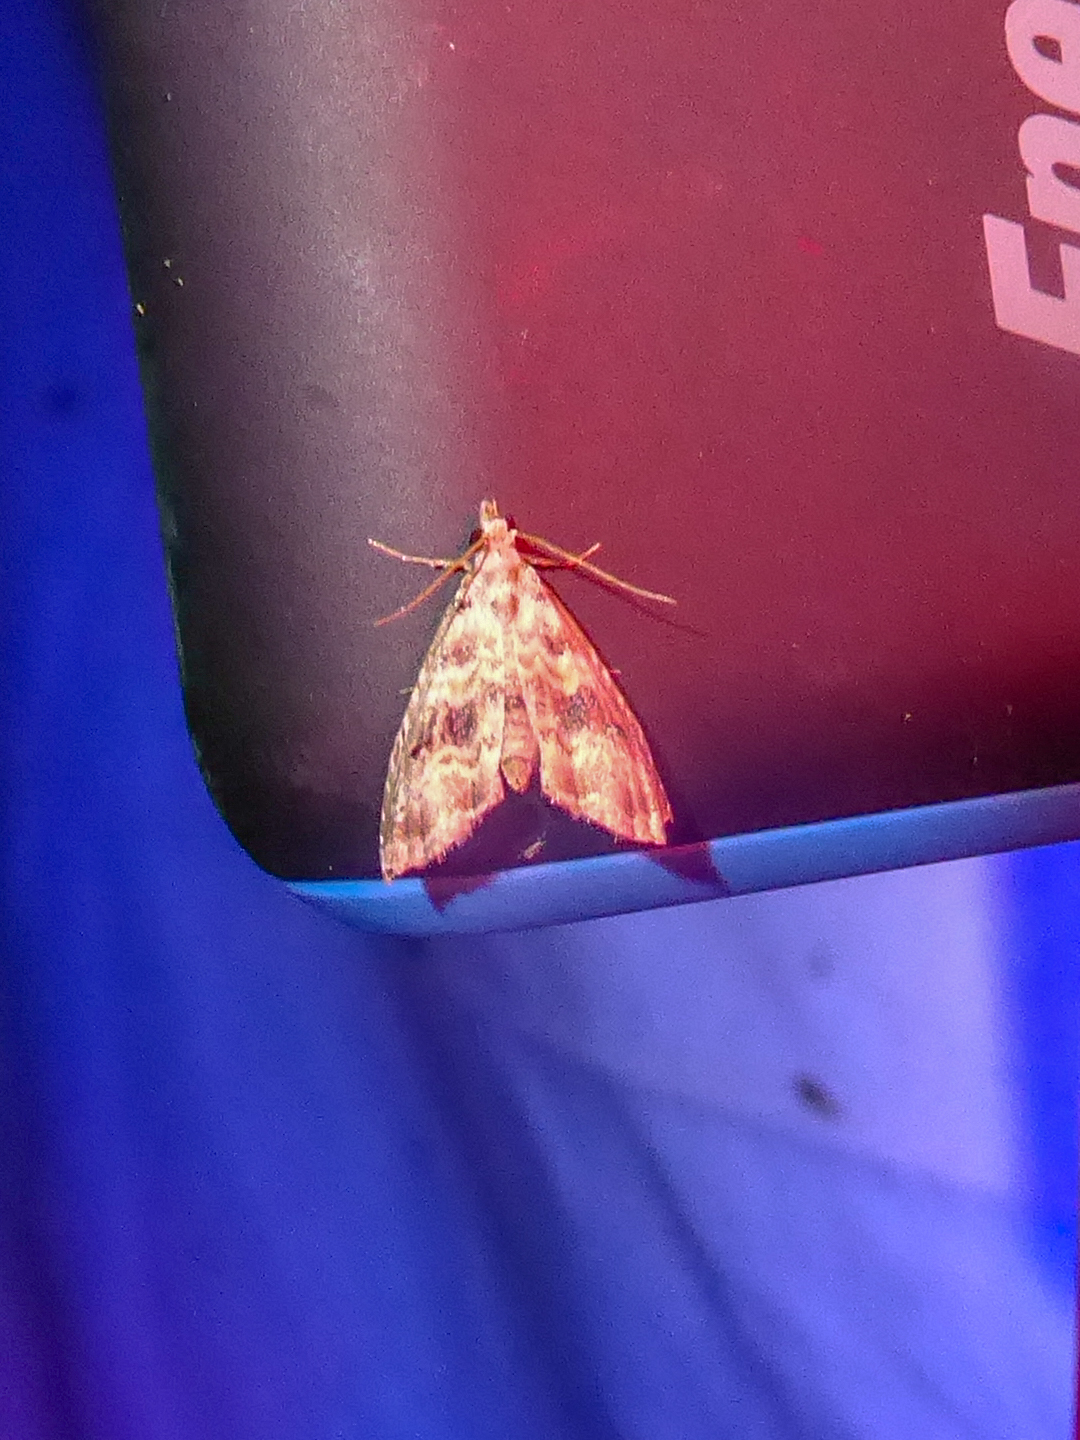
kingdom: Animalia
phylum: Arthropoda
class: Insecta
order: Lepidoptera
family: Noctuidae
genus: Phobolosia
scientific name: Phobolosia anfracta
